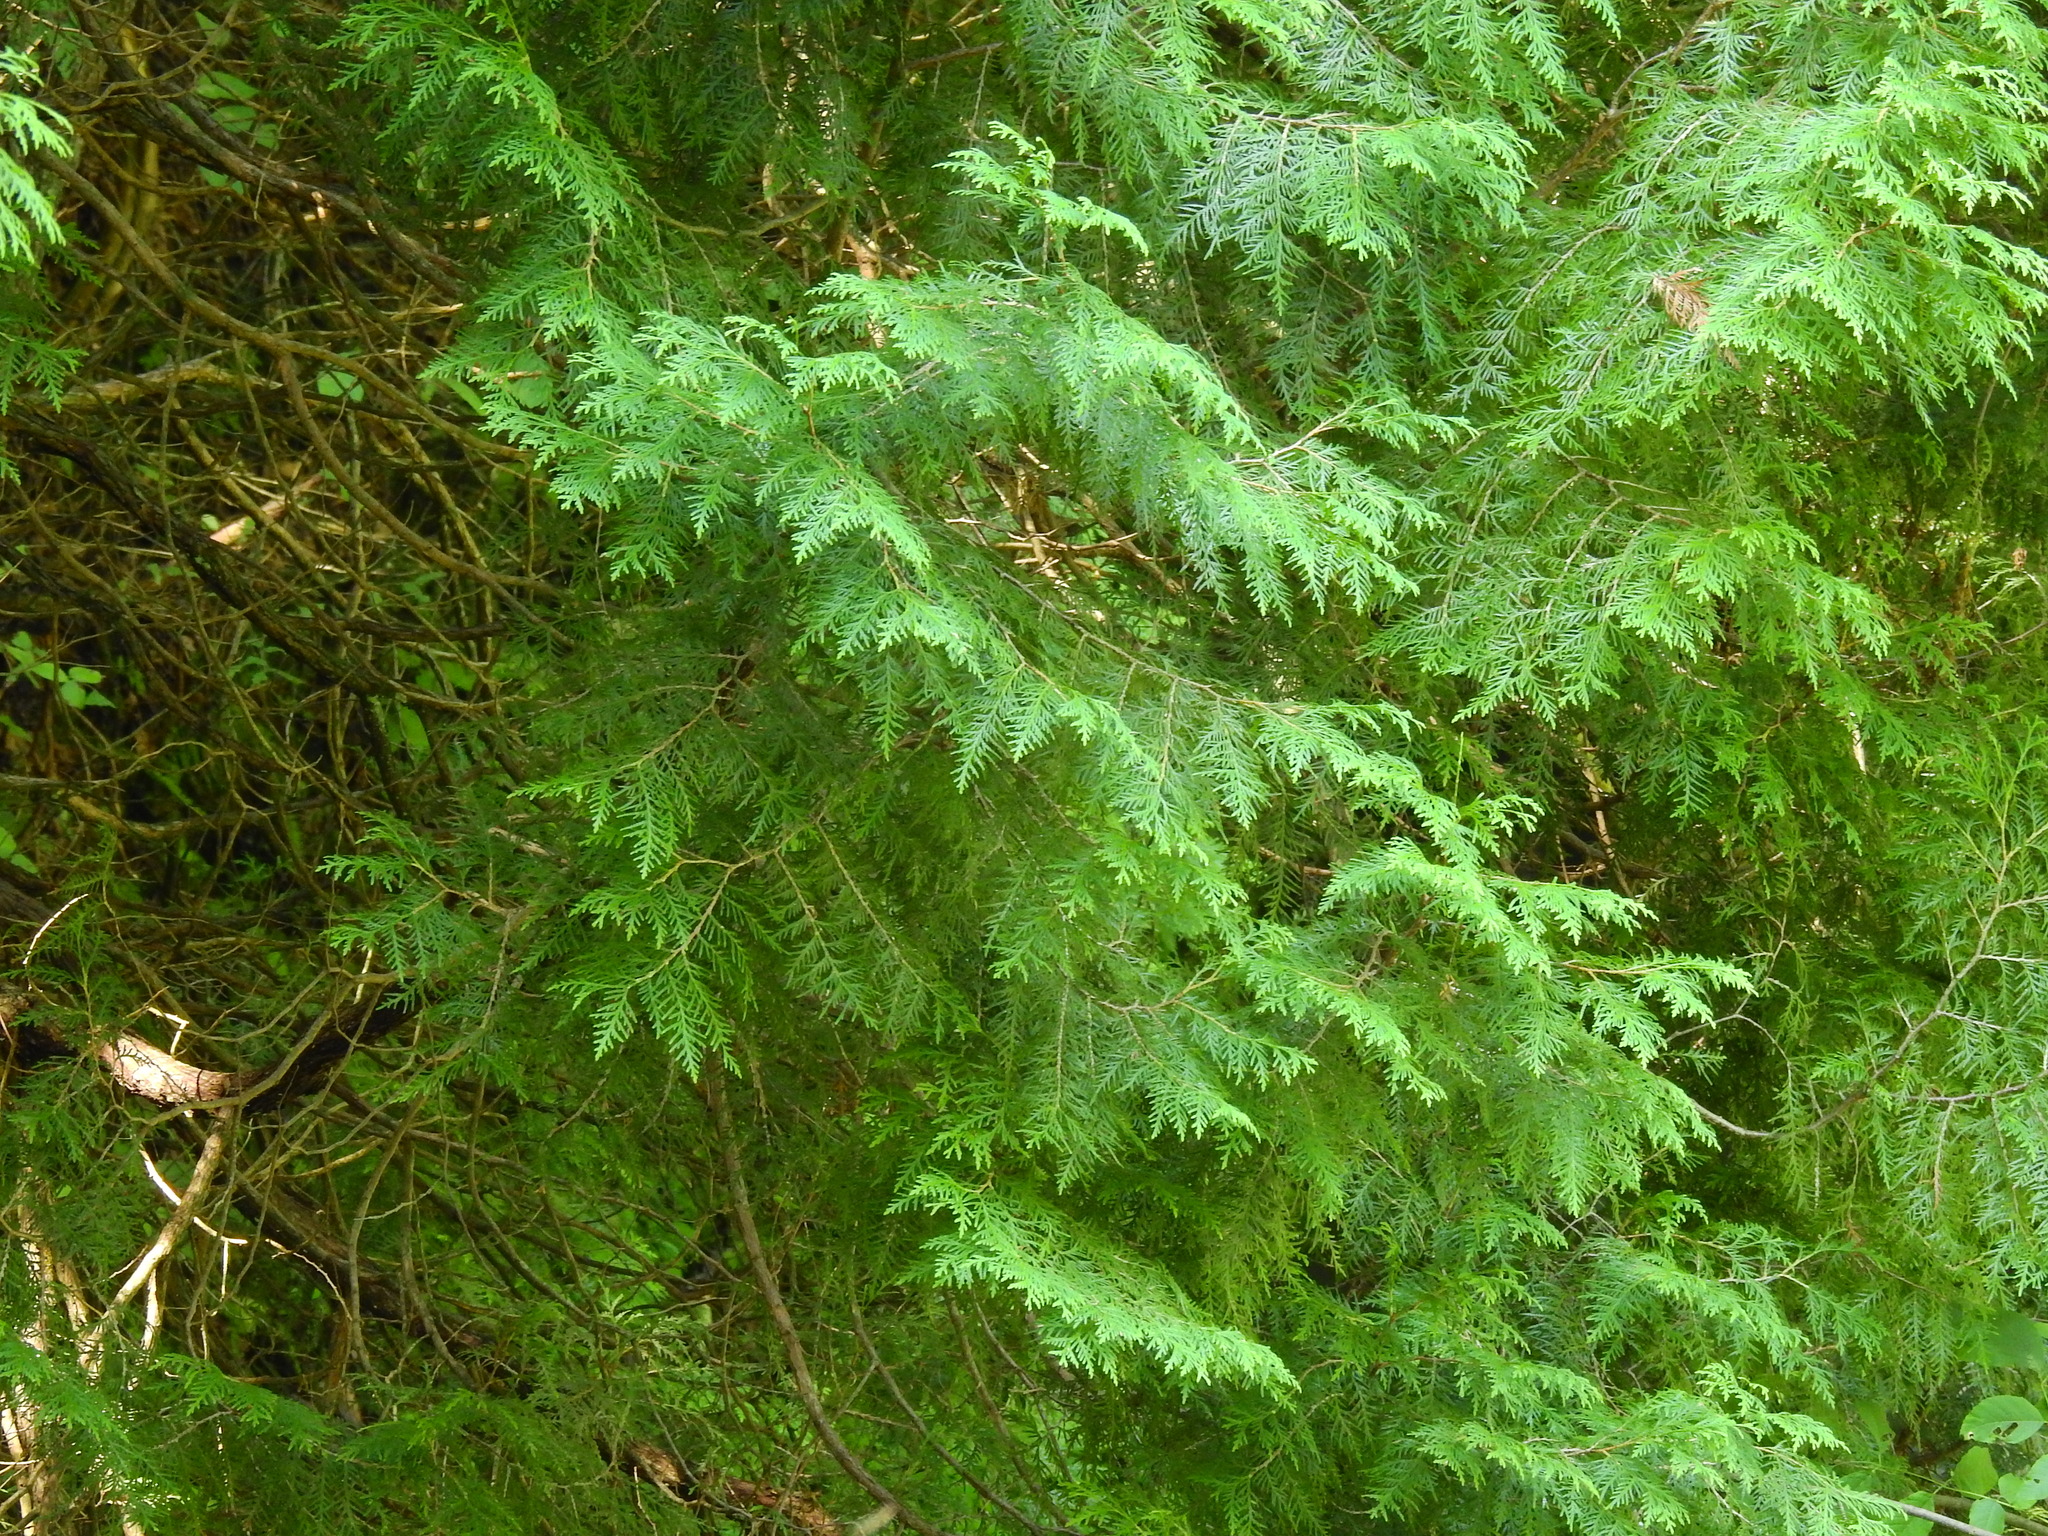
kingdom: Plantae
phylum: Tracheophyta
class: Pinopsida
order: Pinales
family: Cupressaceae
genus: Thuja
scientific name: Thuja occidentalis
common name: Northern white-cedar
